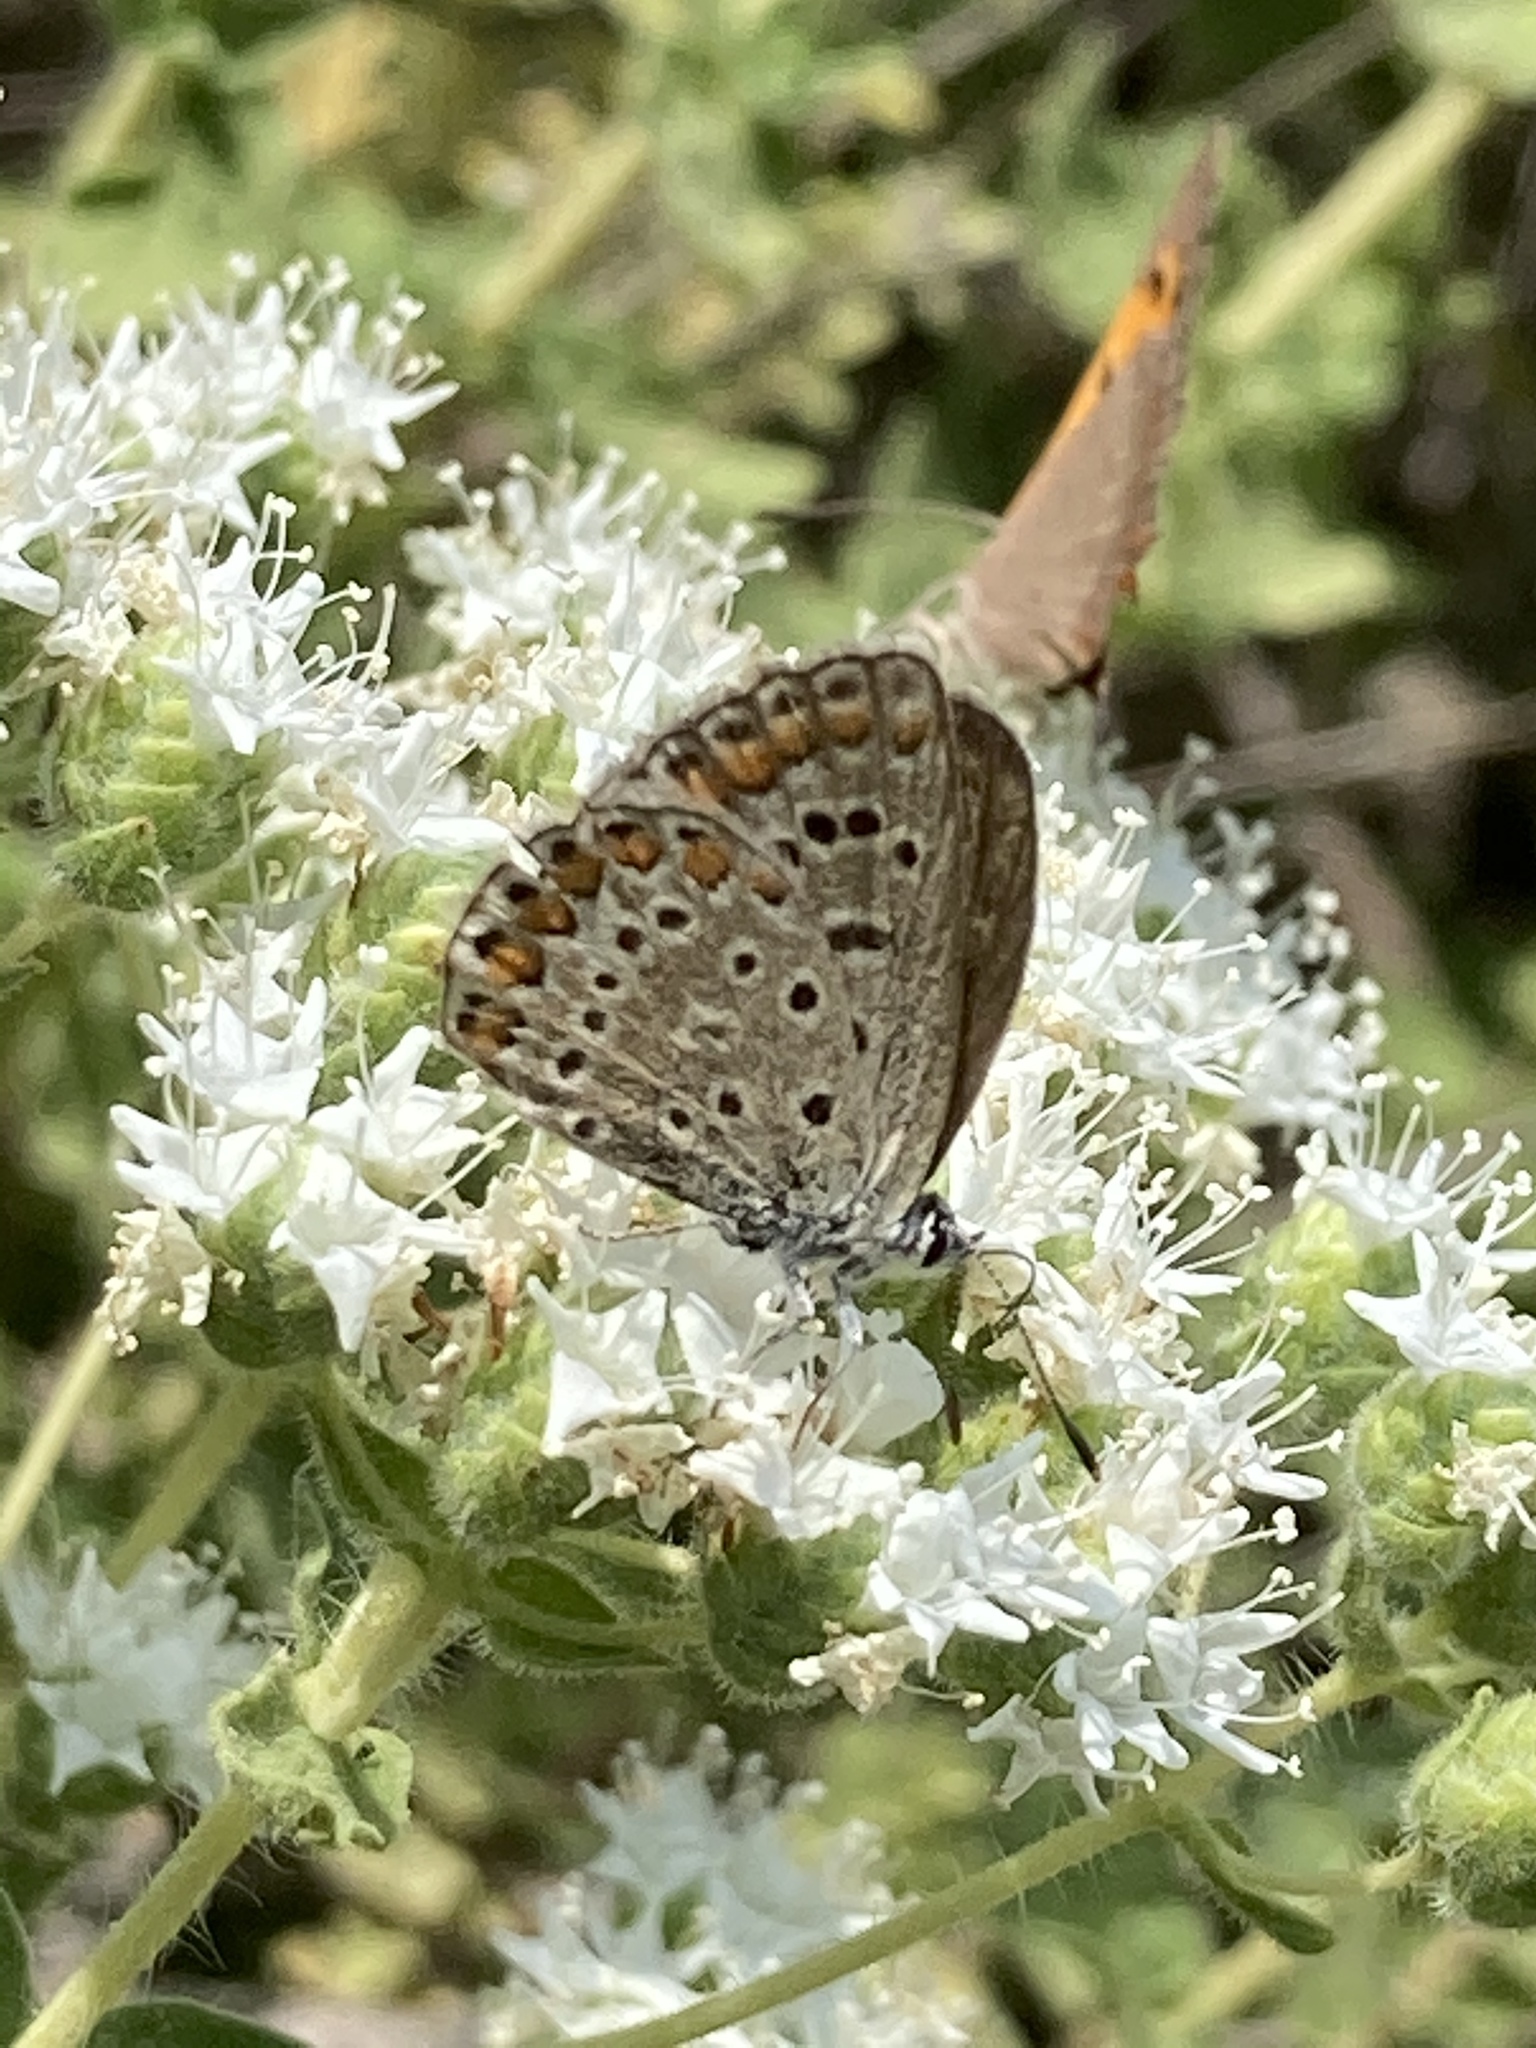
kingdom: Animalia
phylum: Arthropoda
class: Insecta
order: Lepidoptera
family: Lycaenidae
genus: Polyommatus
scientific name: Polyommatus icarus
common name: Common blue
